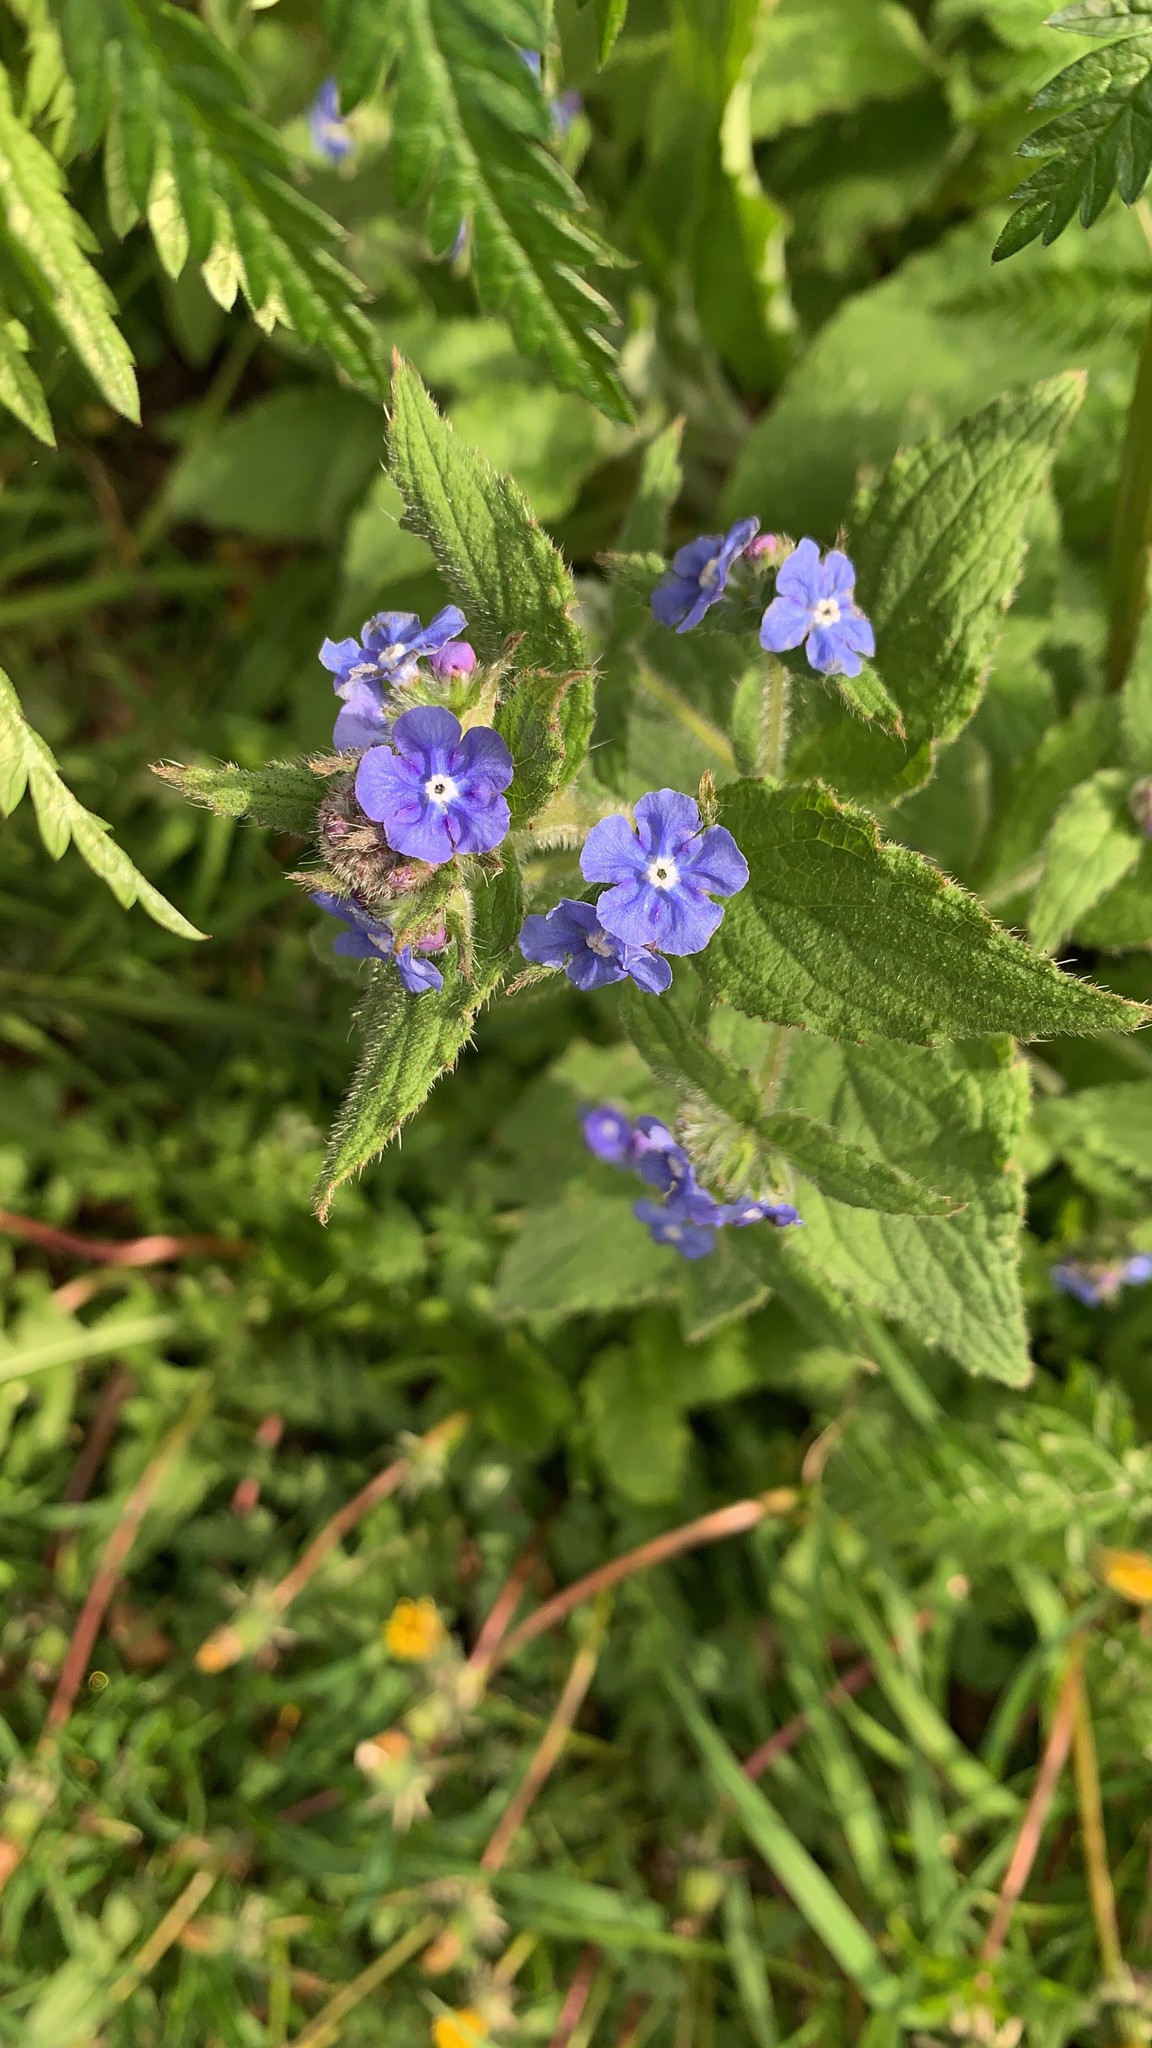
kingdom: Plantae
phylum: Tracheophyta
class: Magnoliopsida
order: Boraginales
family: Boraginaceae
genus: Pentaglottis
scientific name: Pentaglottis sempervirens
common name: Green alkanet
